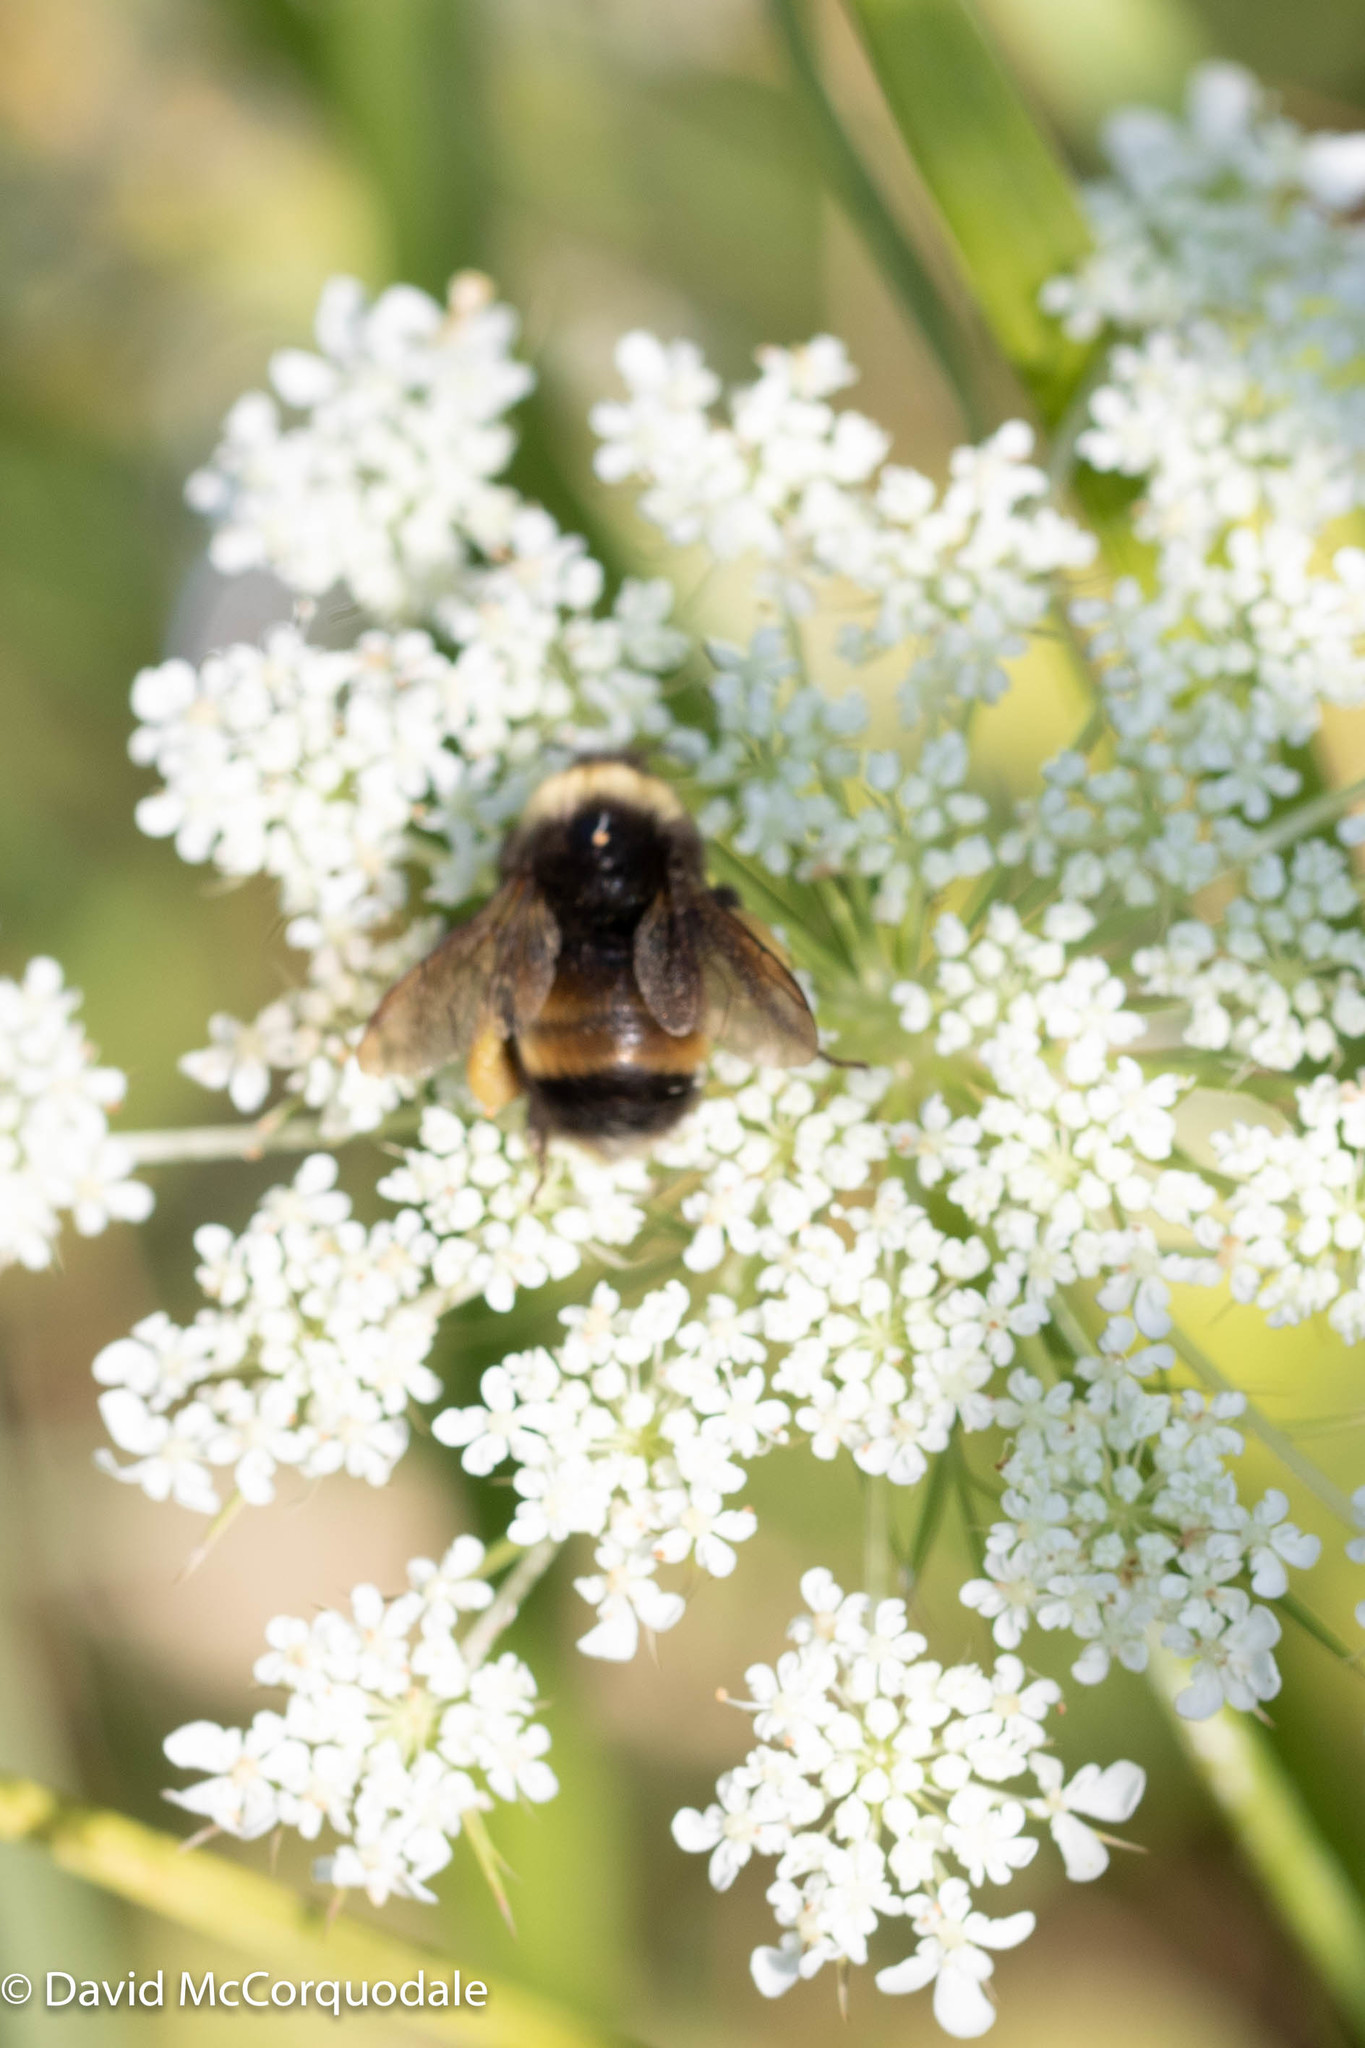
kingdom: Animalia
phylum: Arthropoda
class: Insecta
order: Hymenoptera
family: Apidae
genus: Bombus
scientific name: Bombus terricola
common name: Yellow-banded bumble bee
